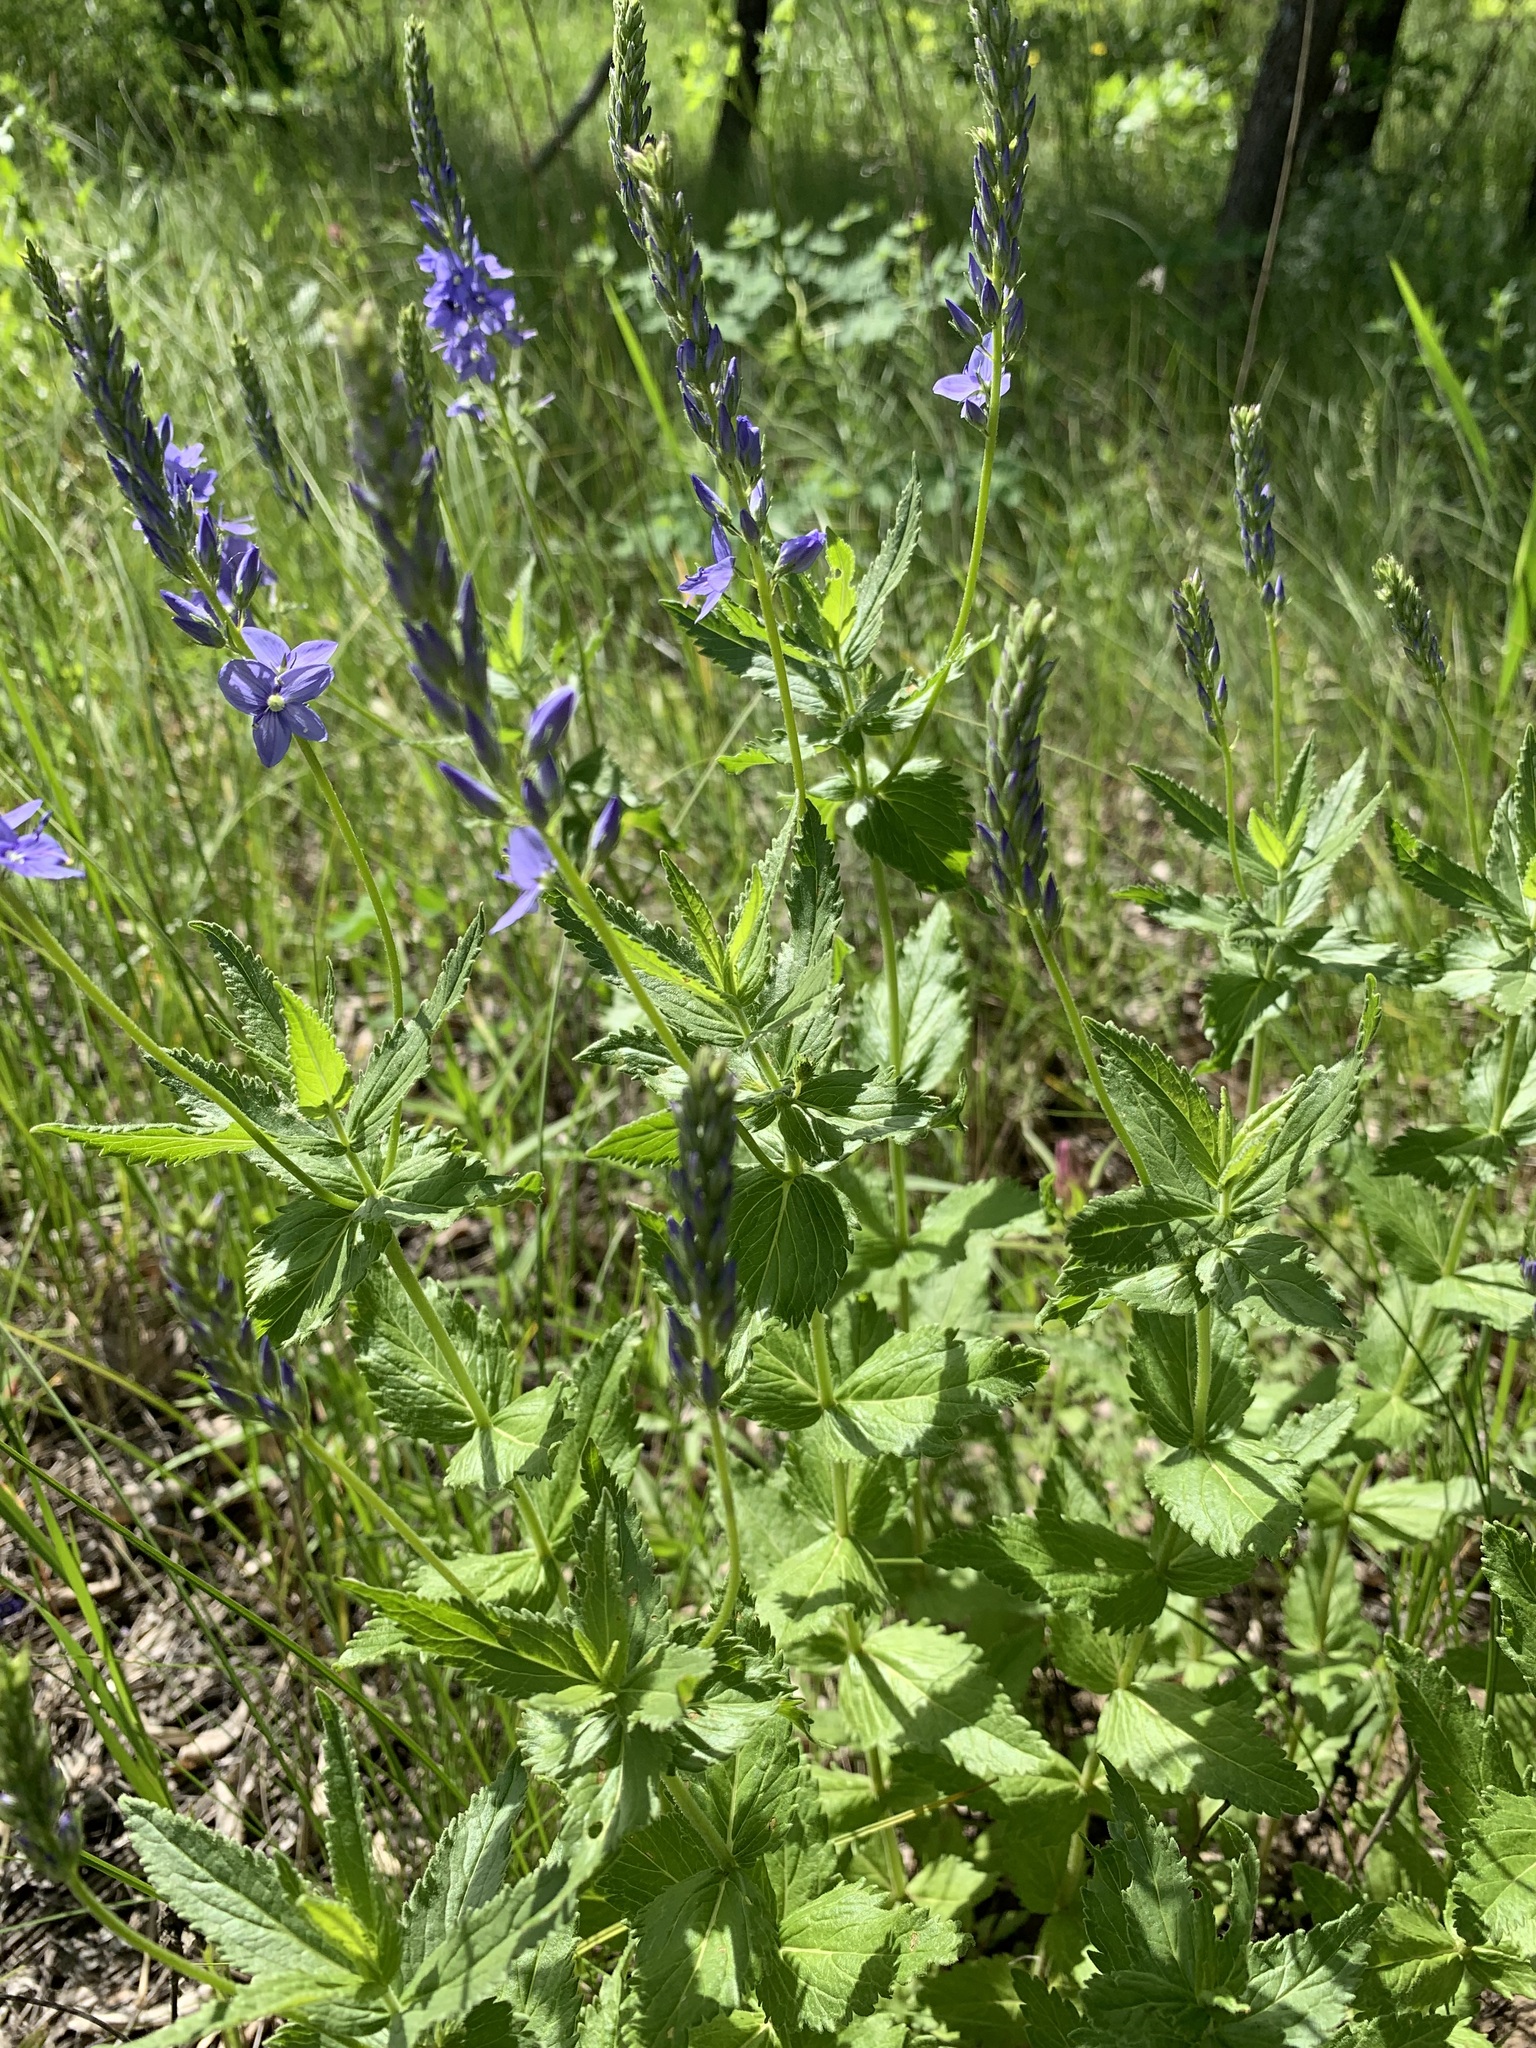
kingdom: Plantae
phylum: Tracheophyta
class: Magnoliopsida
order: Lamiales
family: Plantaginaceae
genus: Veronica
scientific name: Veronica teucrium
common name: Large speedwell
